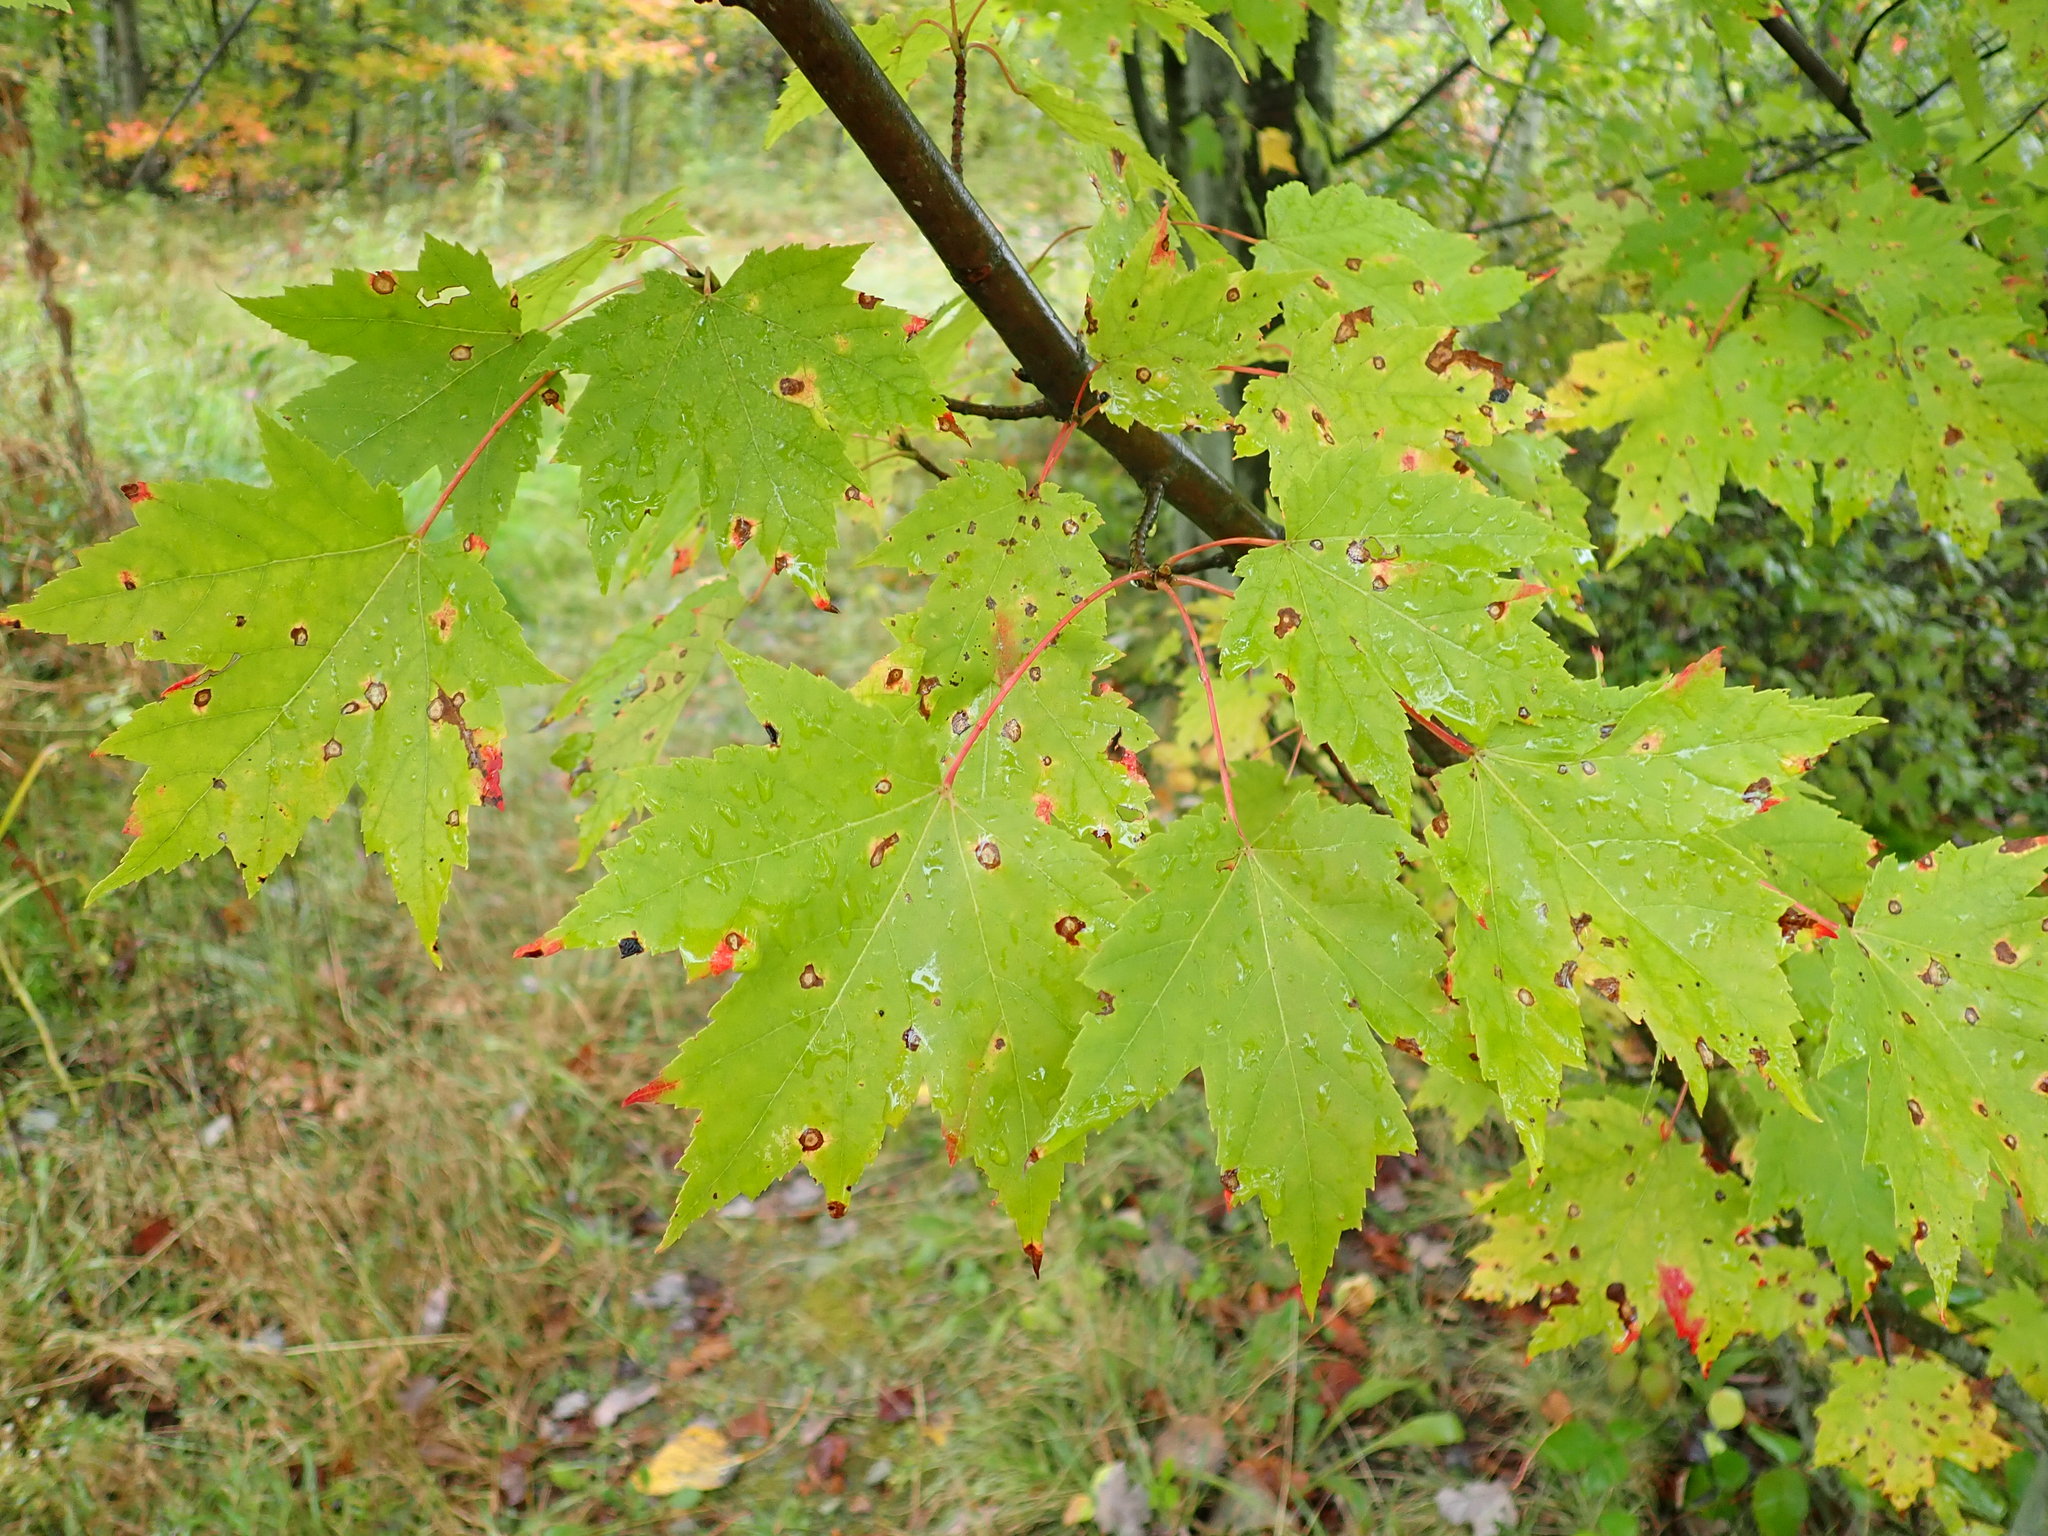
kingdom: Plantae
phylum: Tracheophyta
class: Magnoliopsida
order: Sapindales
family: Sapindaceae
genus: Acer
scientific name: Acer rubrum
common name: Red maple
